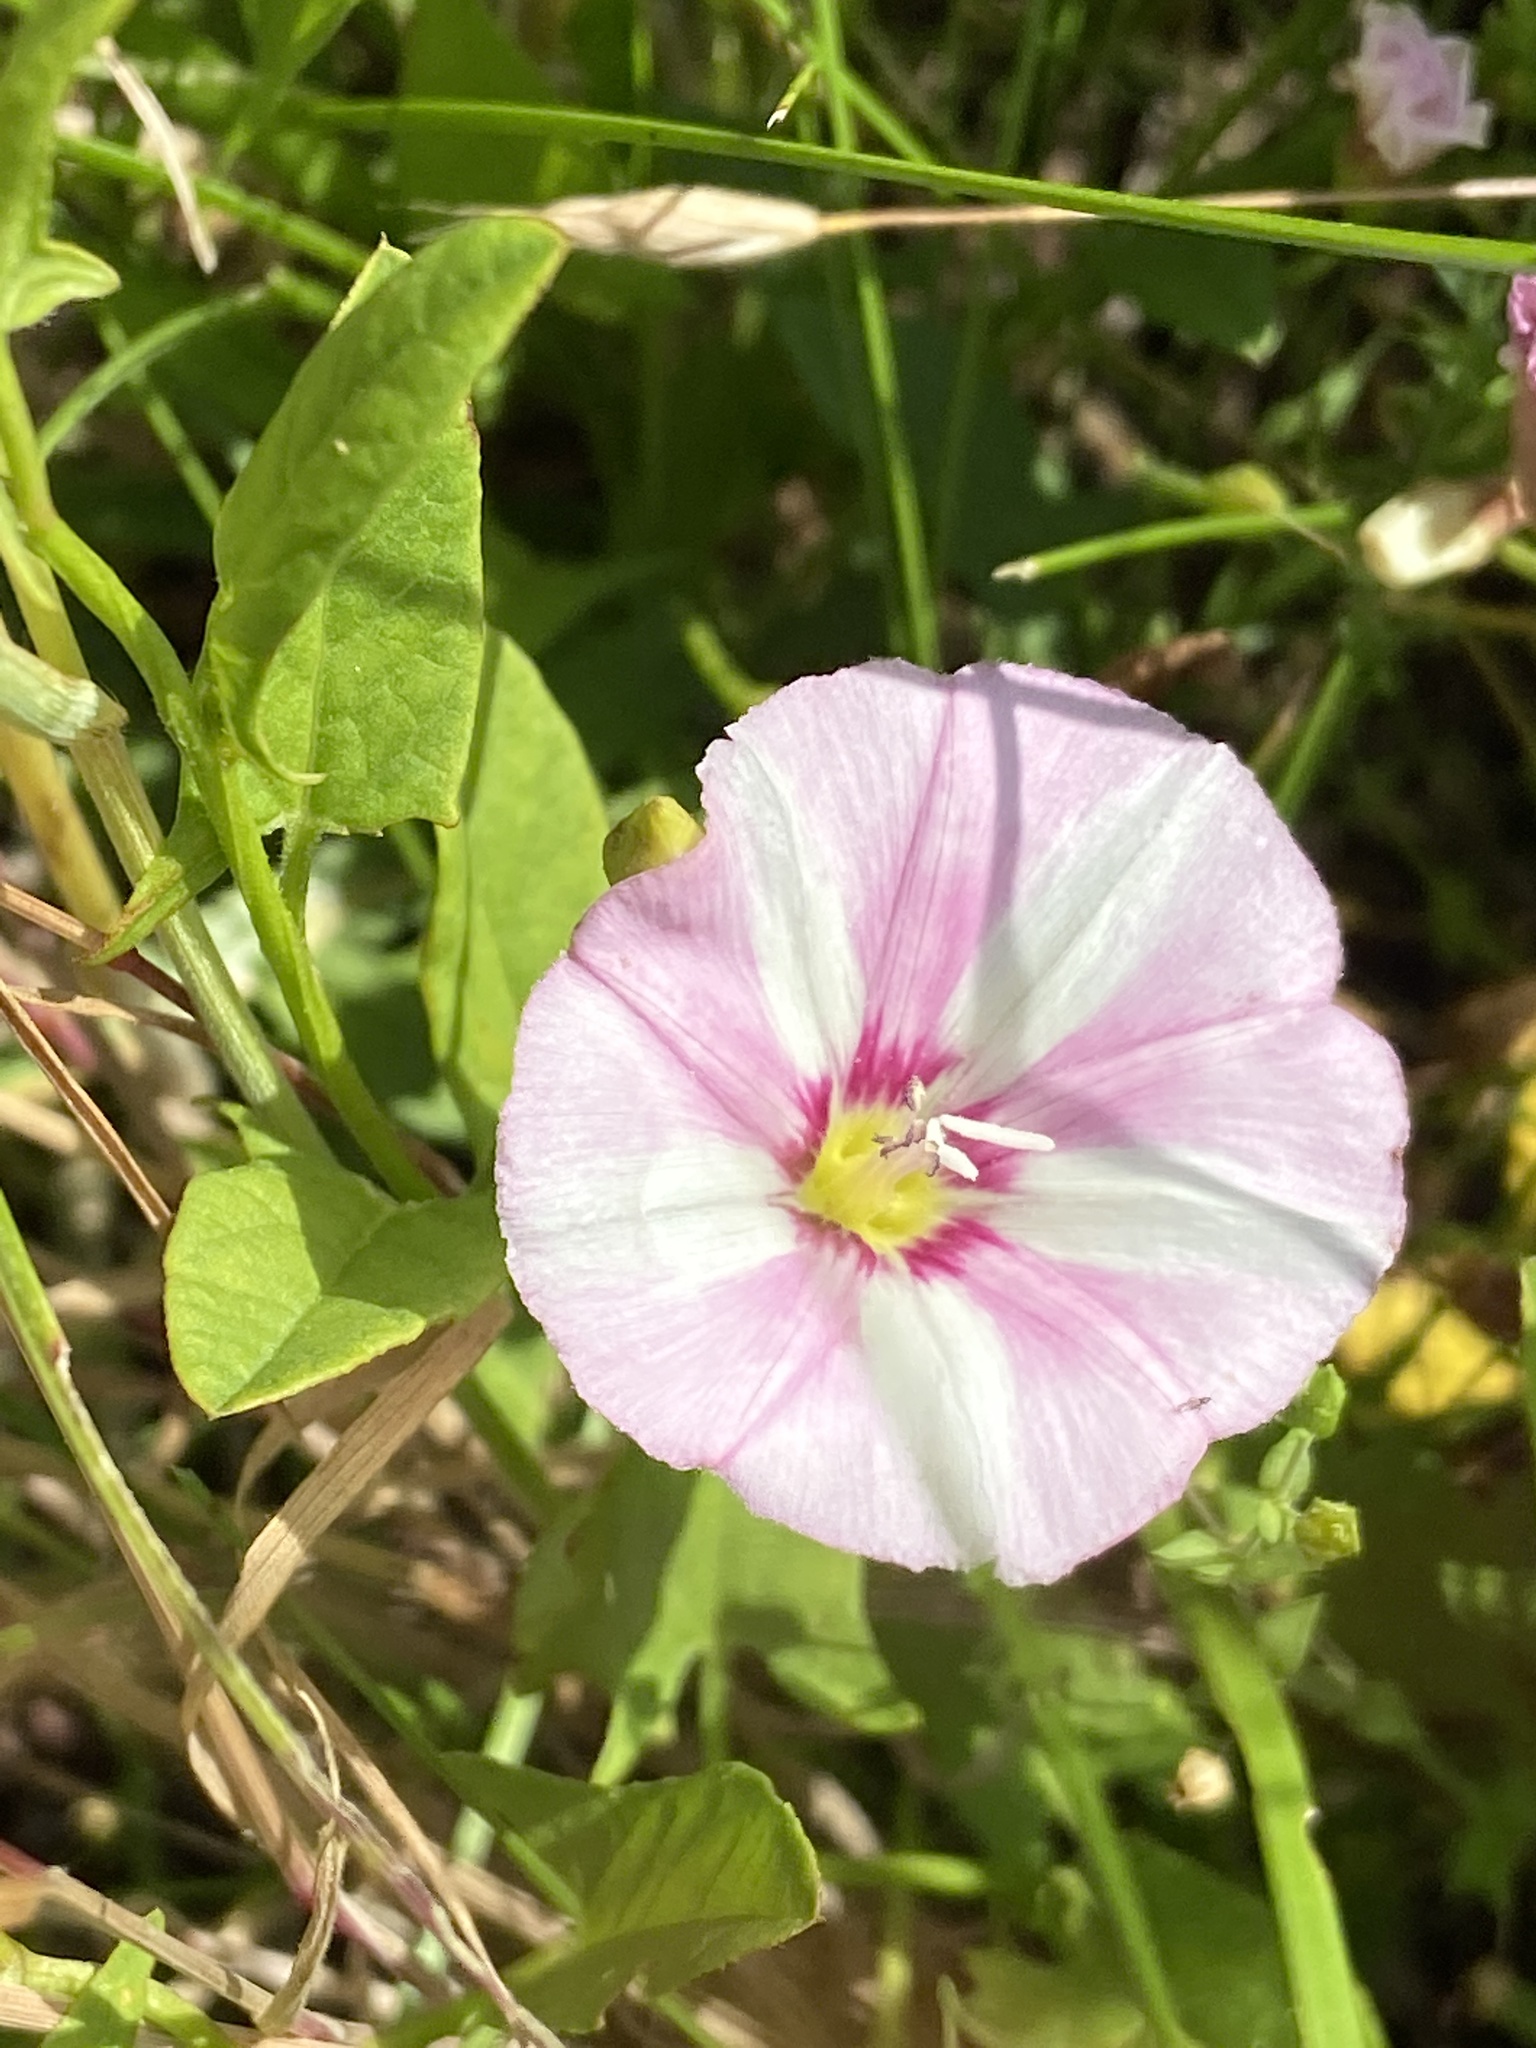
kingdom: Plantae
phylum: Tracheophyta
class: Magnoliopsida
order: Solanales
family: Convolvulaceae
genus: Convolvulus
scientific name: Convolvulus arvensis
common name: Field bindweed
